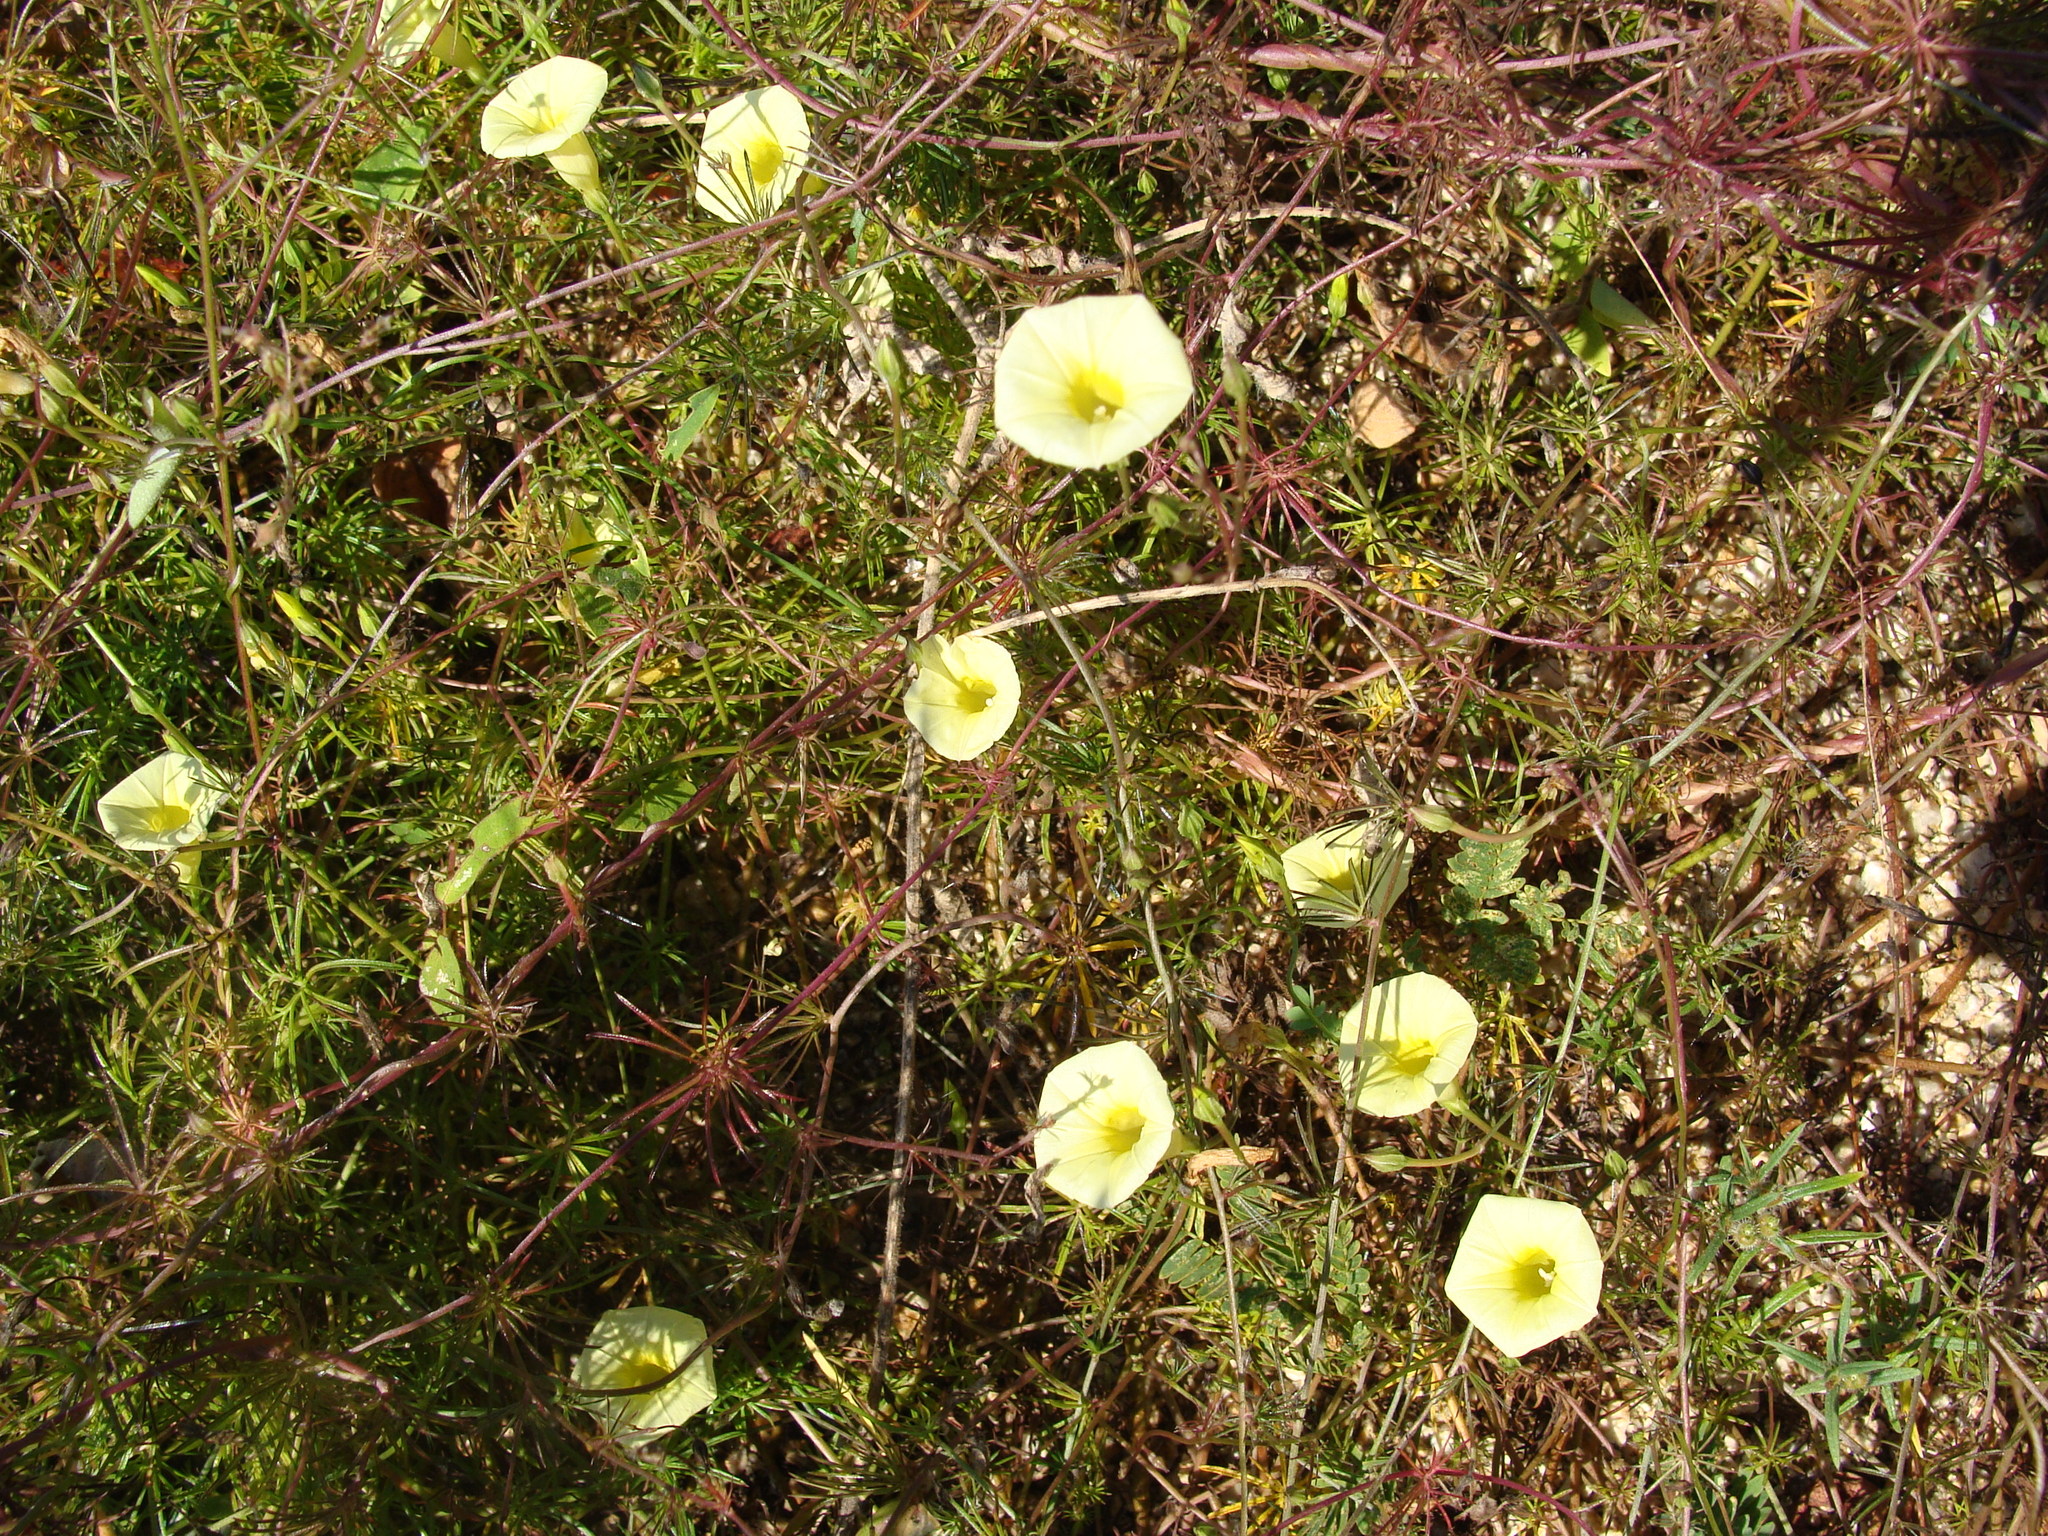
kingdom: Plantae
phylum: Tracheophyta
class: Magnoliopsida
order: Solanales
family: Convolvulaceae
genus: Ipomoea
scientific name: Ipomoea chamelana
